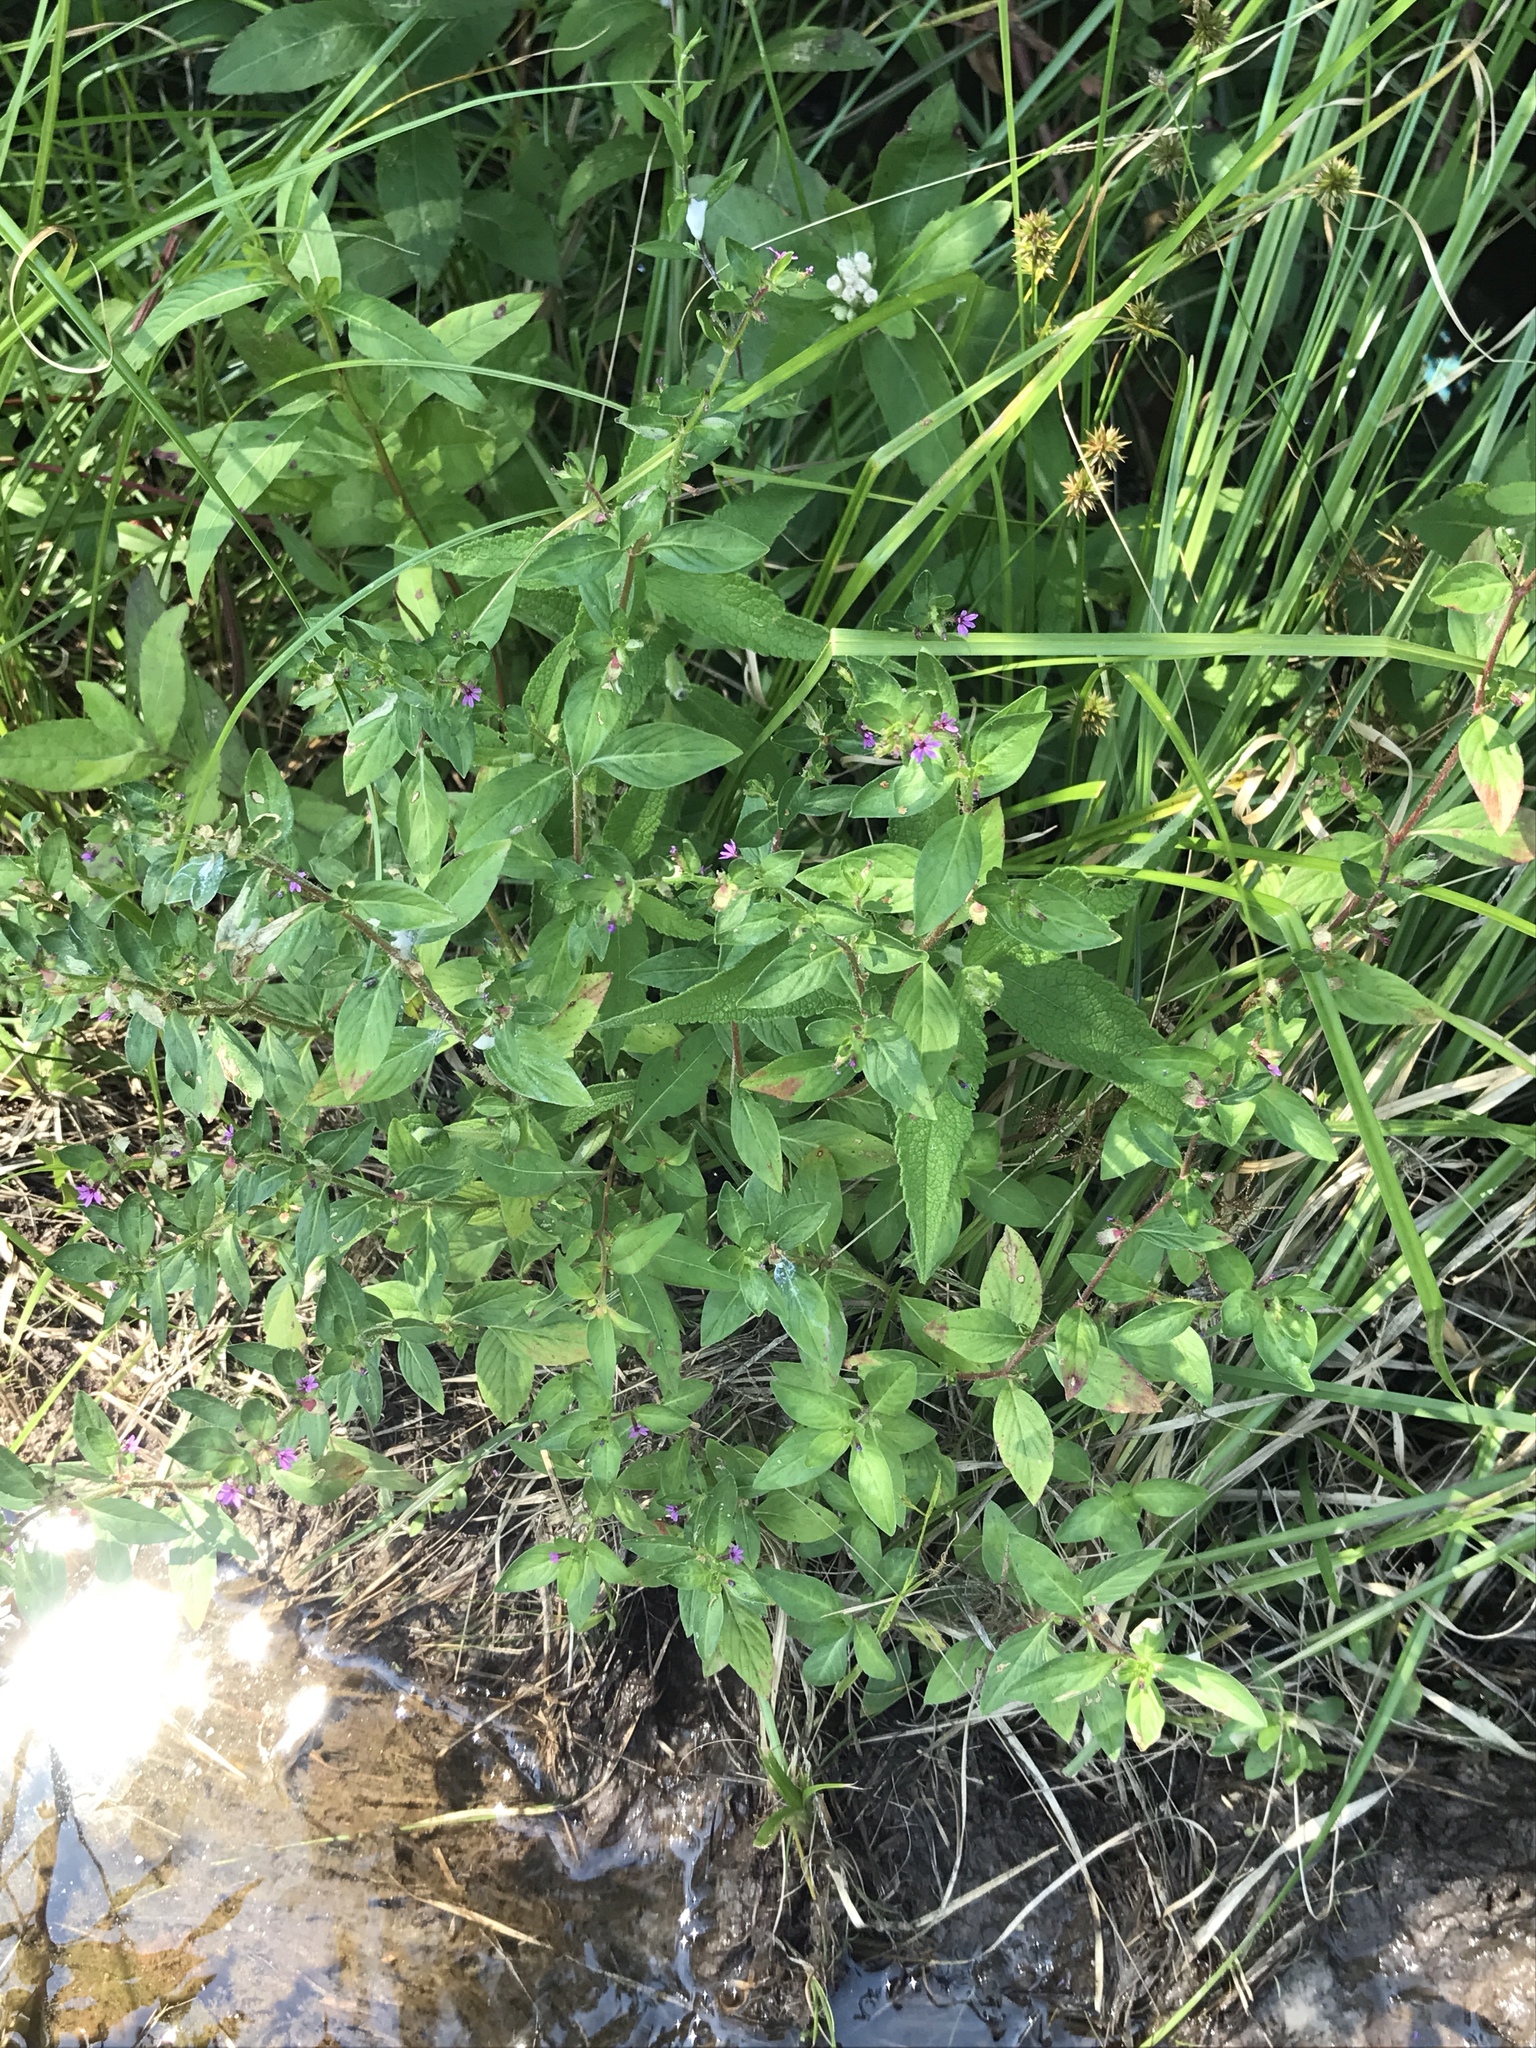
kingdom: Plantae
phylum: Tracheophyta
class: Magnoliopsida
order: Myrtales
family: Lythraceae
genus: Cuphea
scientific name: Cuphea carthagenensis
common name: Colombian waxweed
